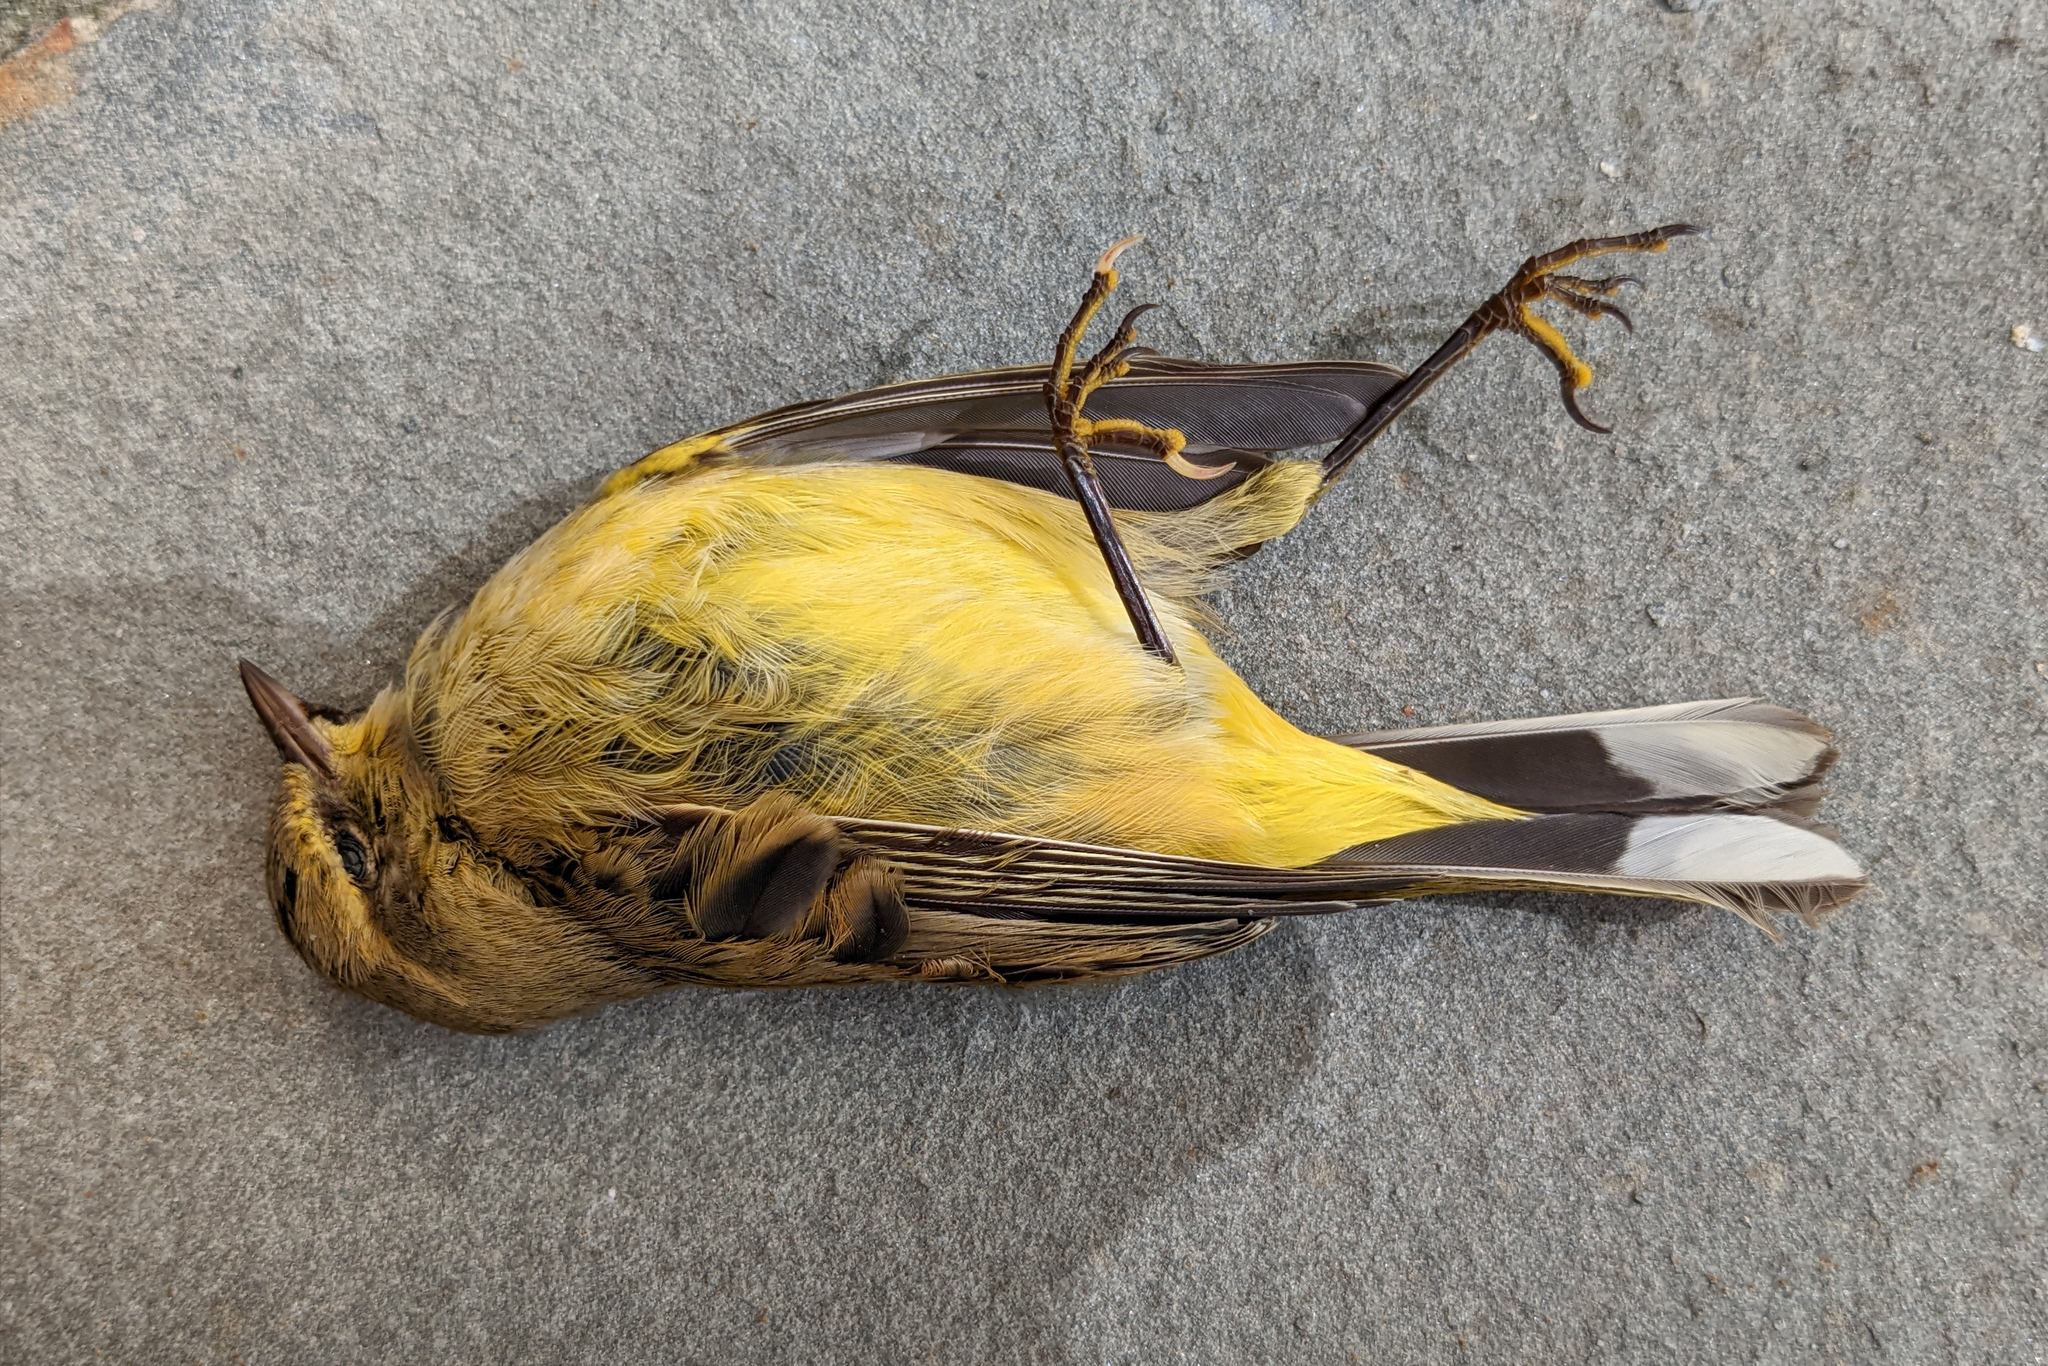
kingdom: Animalia
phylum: Chordata
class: Aves
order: Passeriformes
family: Parulidae
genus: Setophaga
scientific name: Setophaga palmarum
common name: Palm warbler
